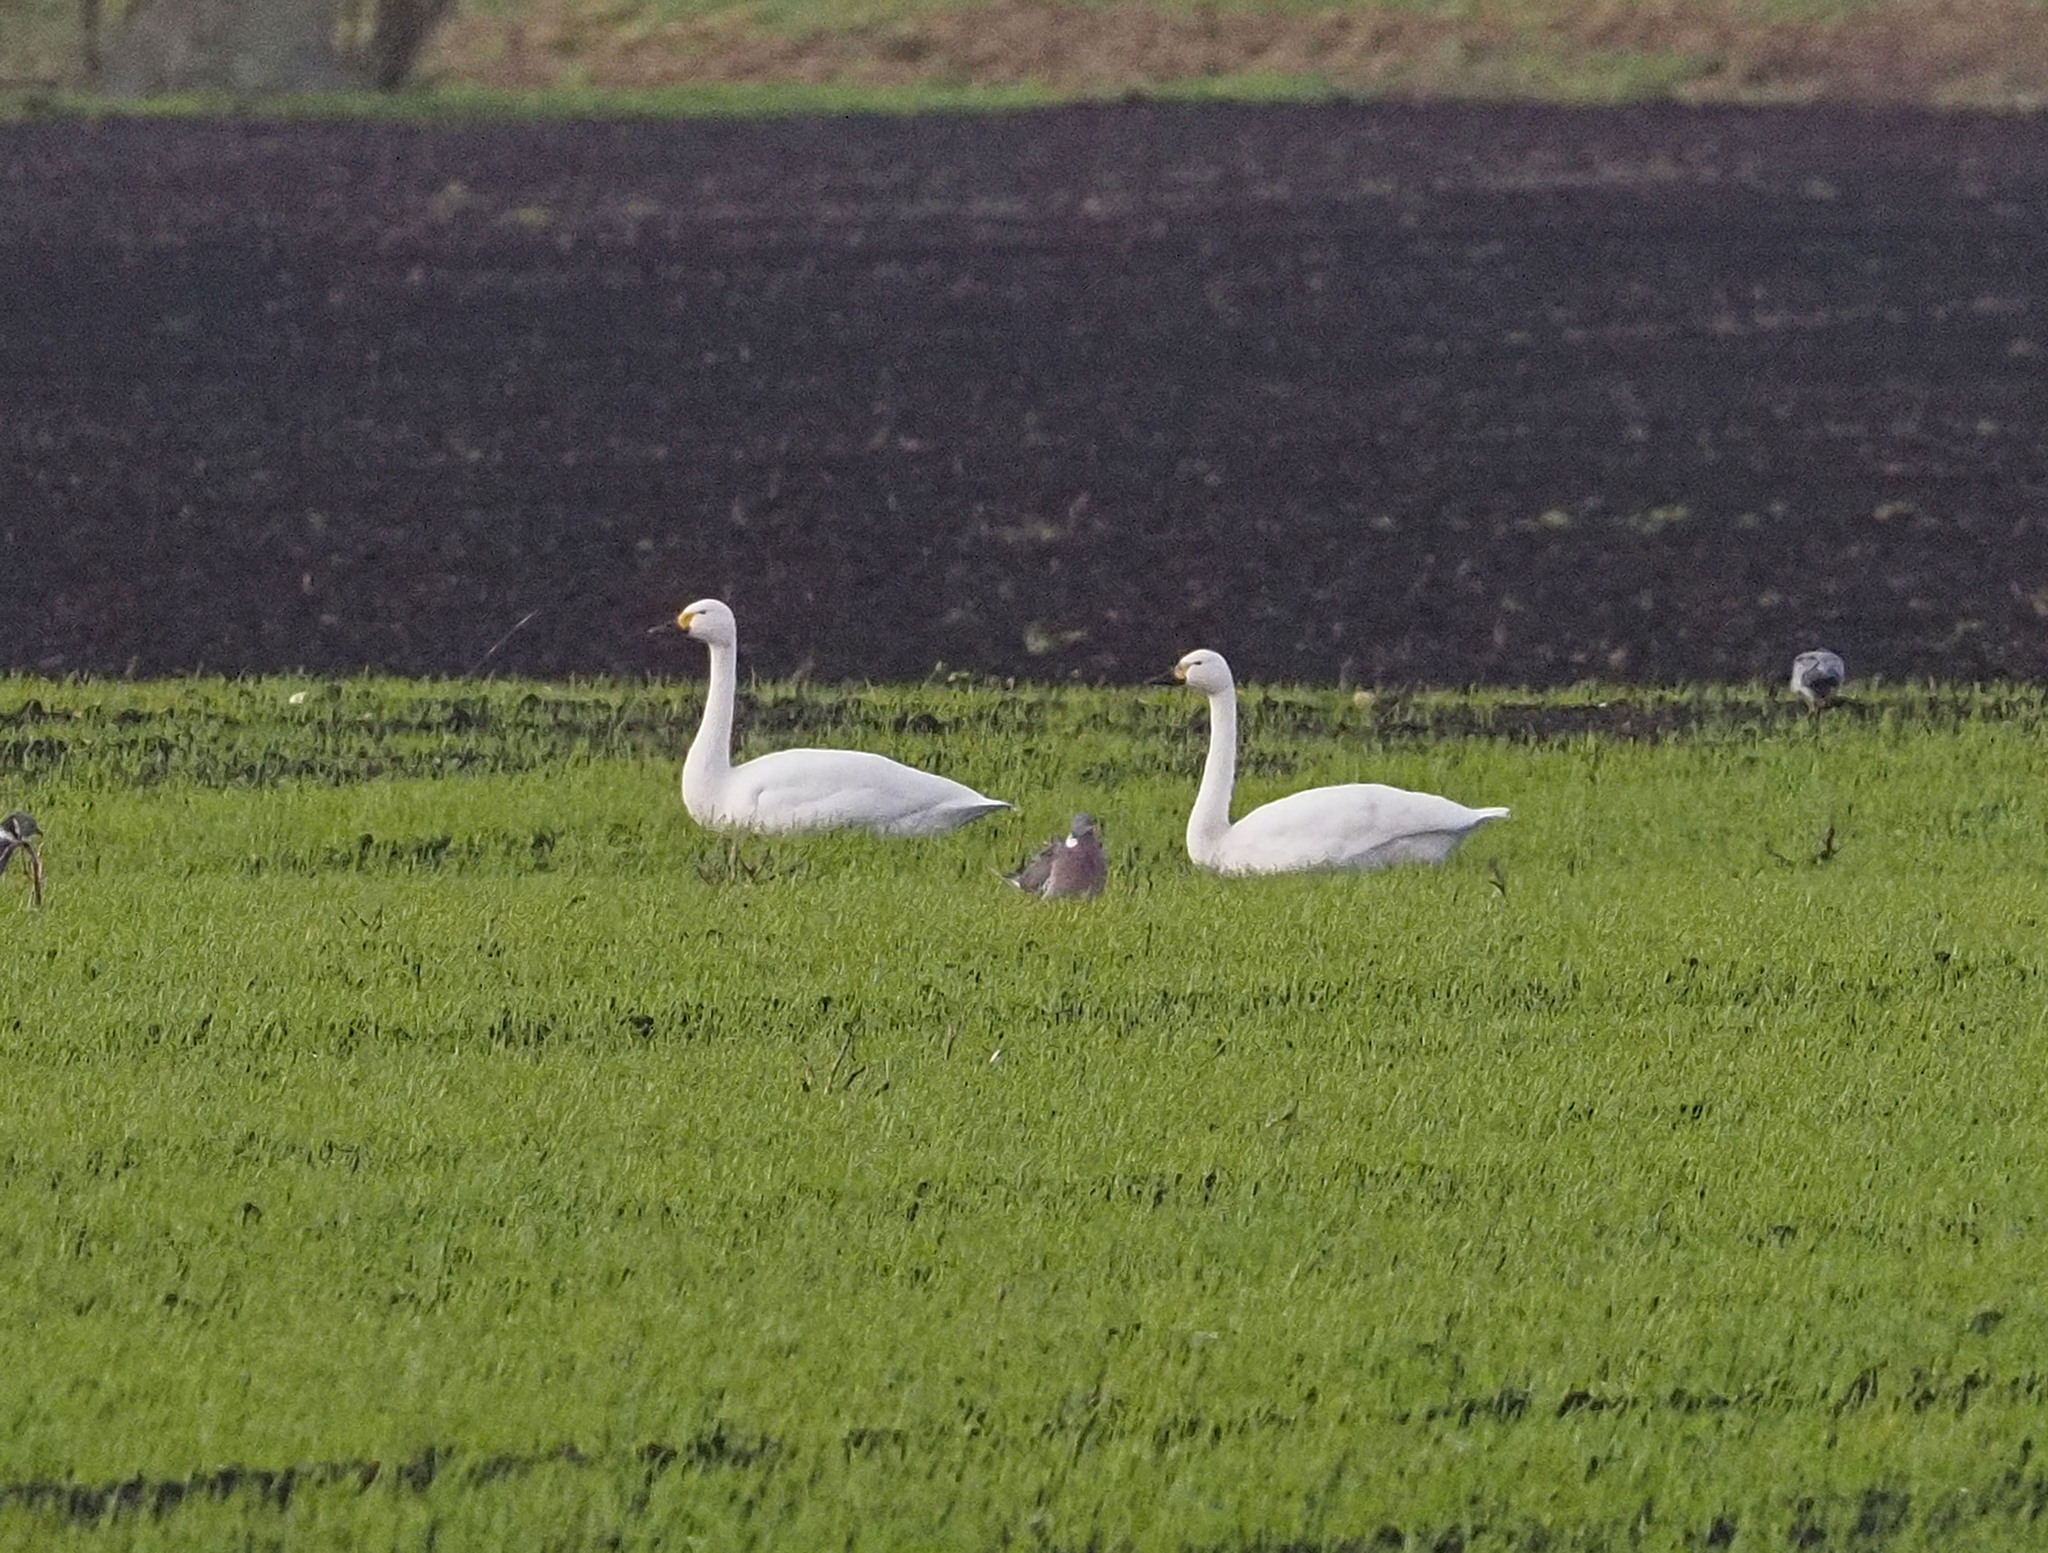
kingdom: Animalia
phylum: Chordata
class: Aves
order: Anseriformes
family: Anatidae
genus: Cygnus
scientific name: Cygnus columbianus
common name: Tundra swan
